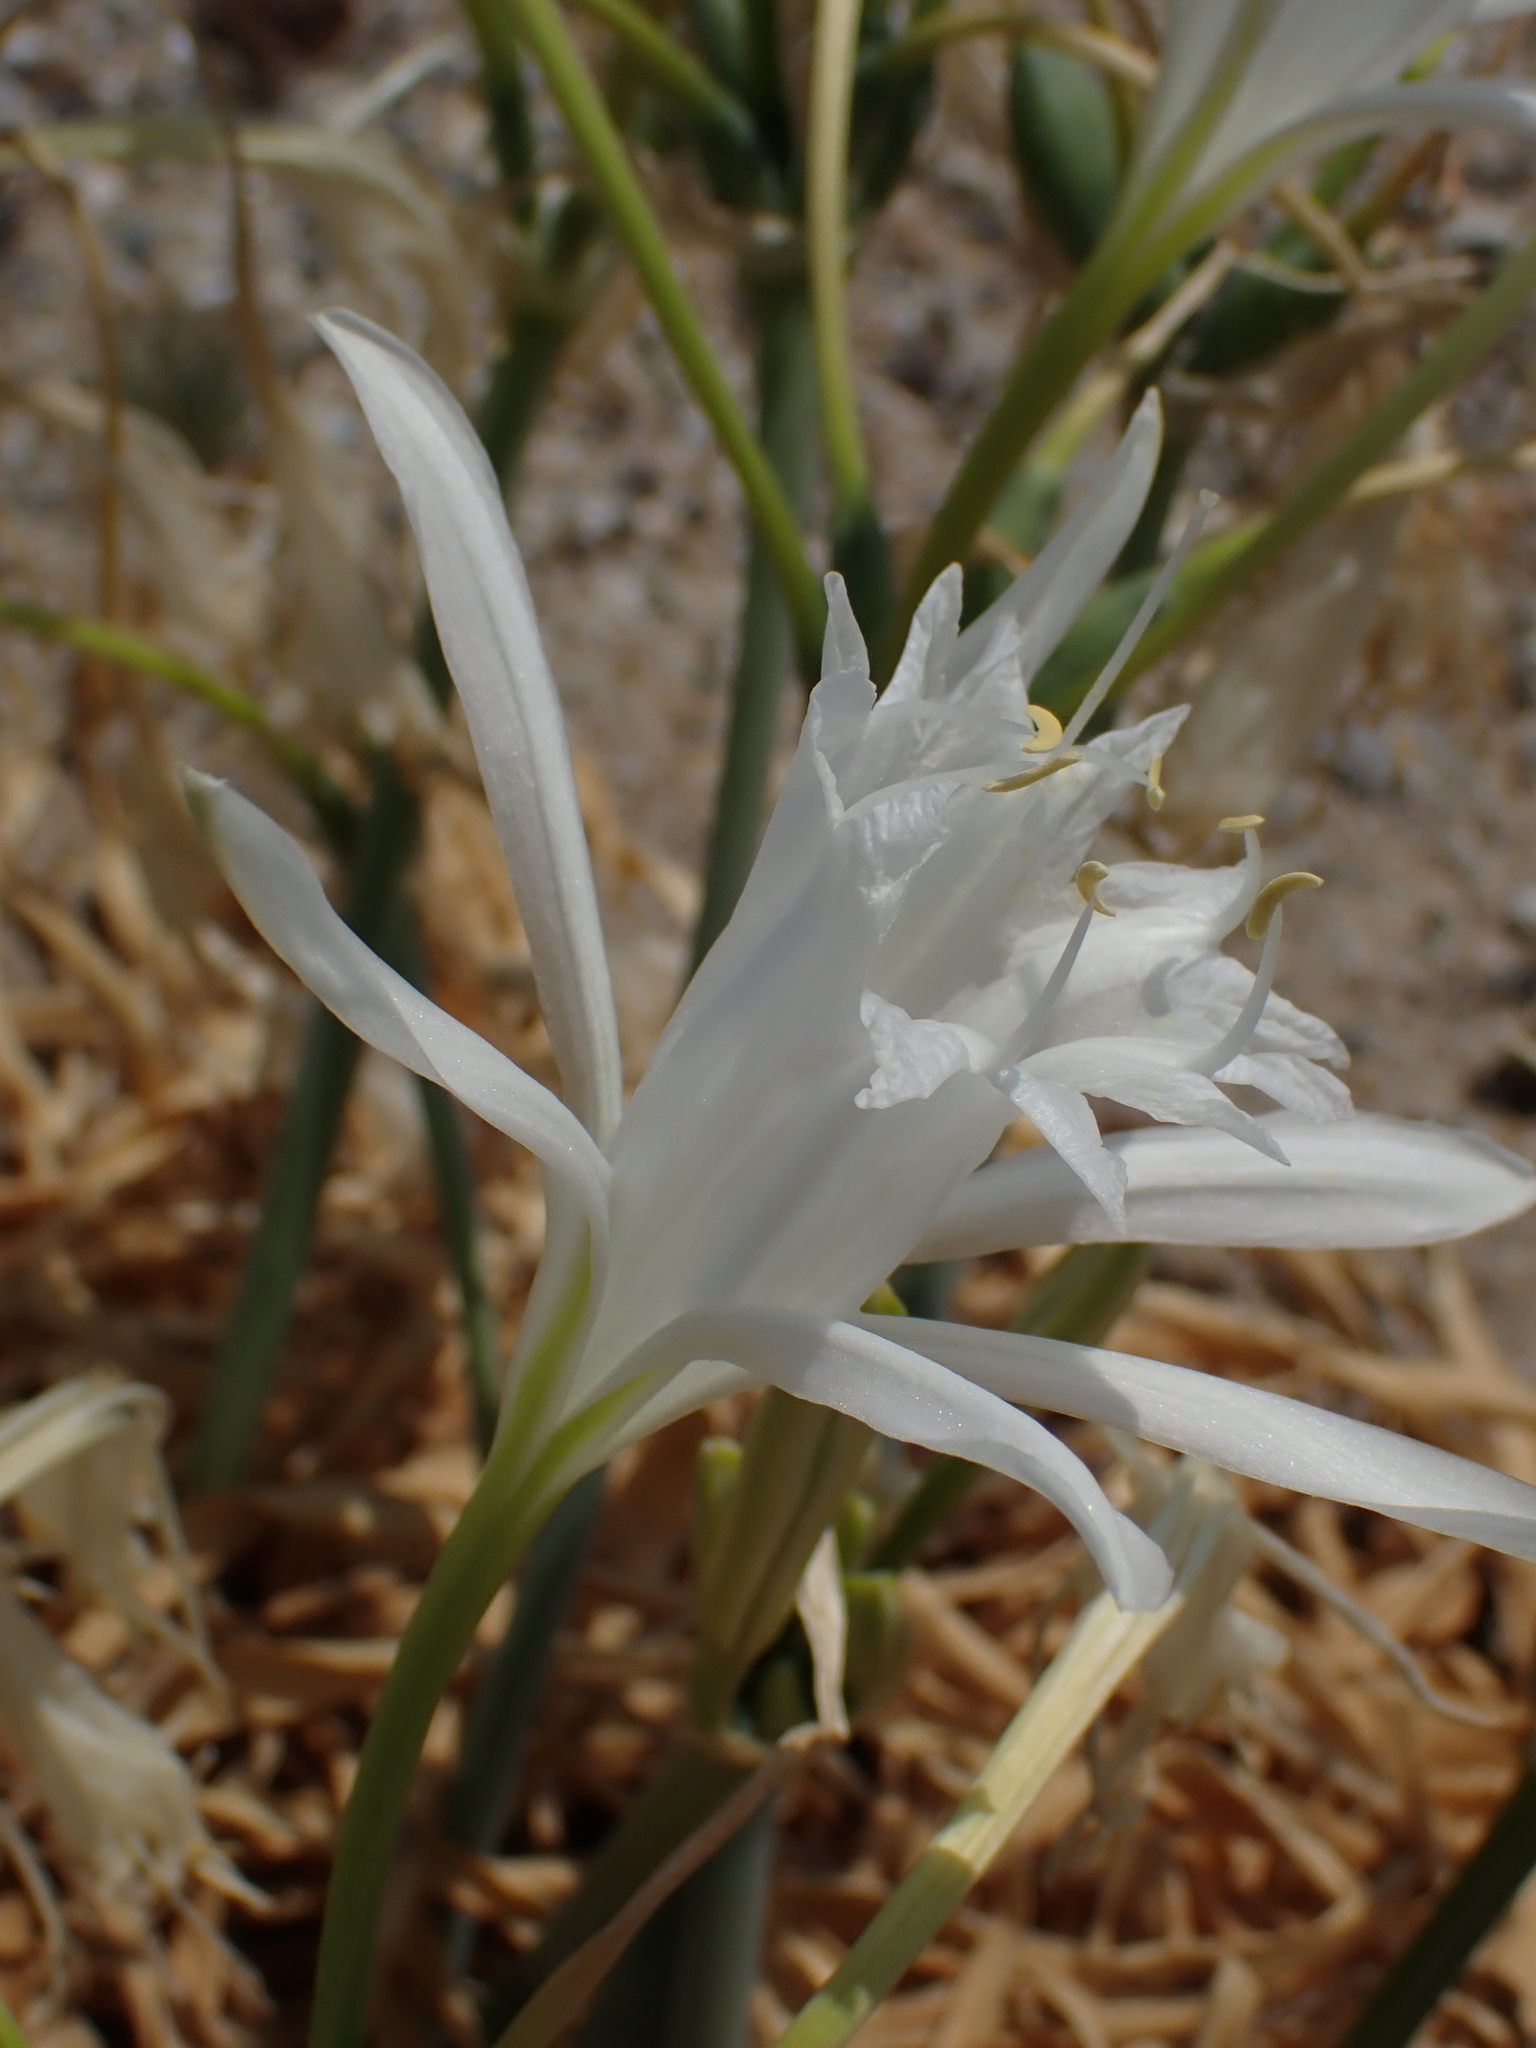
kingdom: Plantae
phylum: Tracheophyta
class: Liliopsida
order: Asparagales
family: Amaryllidaceae
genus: Pancratium
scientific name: Pancratium maritimum
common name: Sea-daffodil
